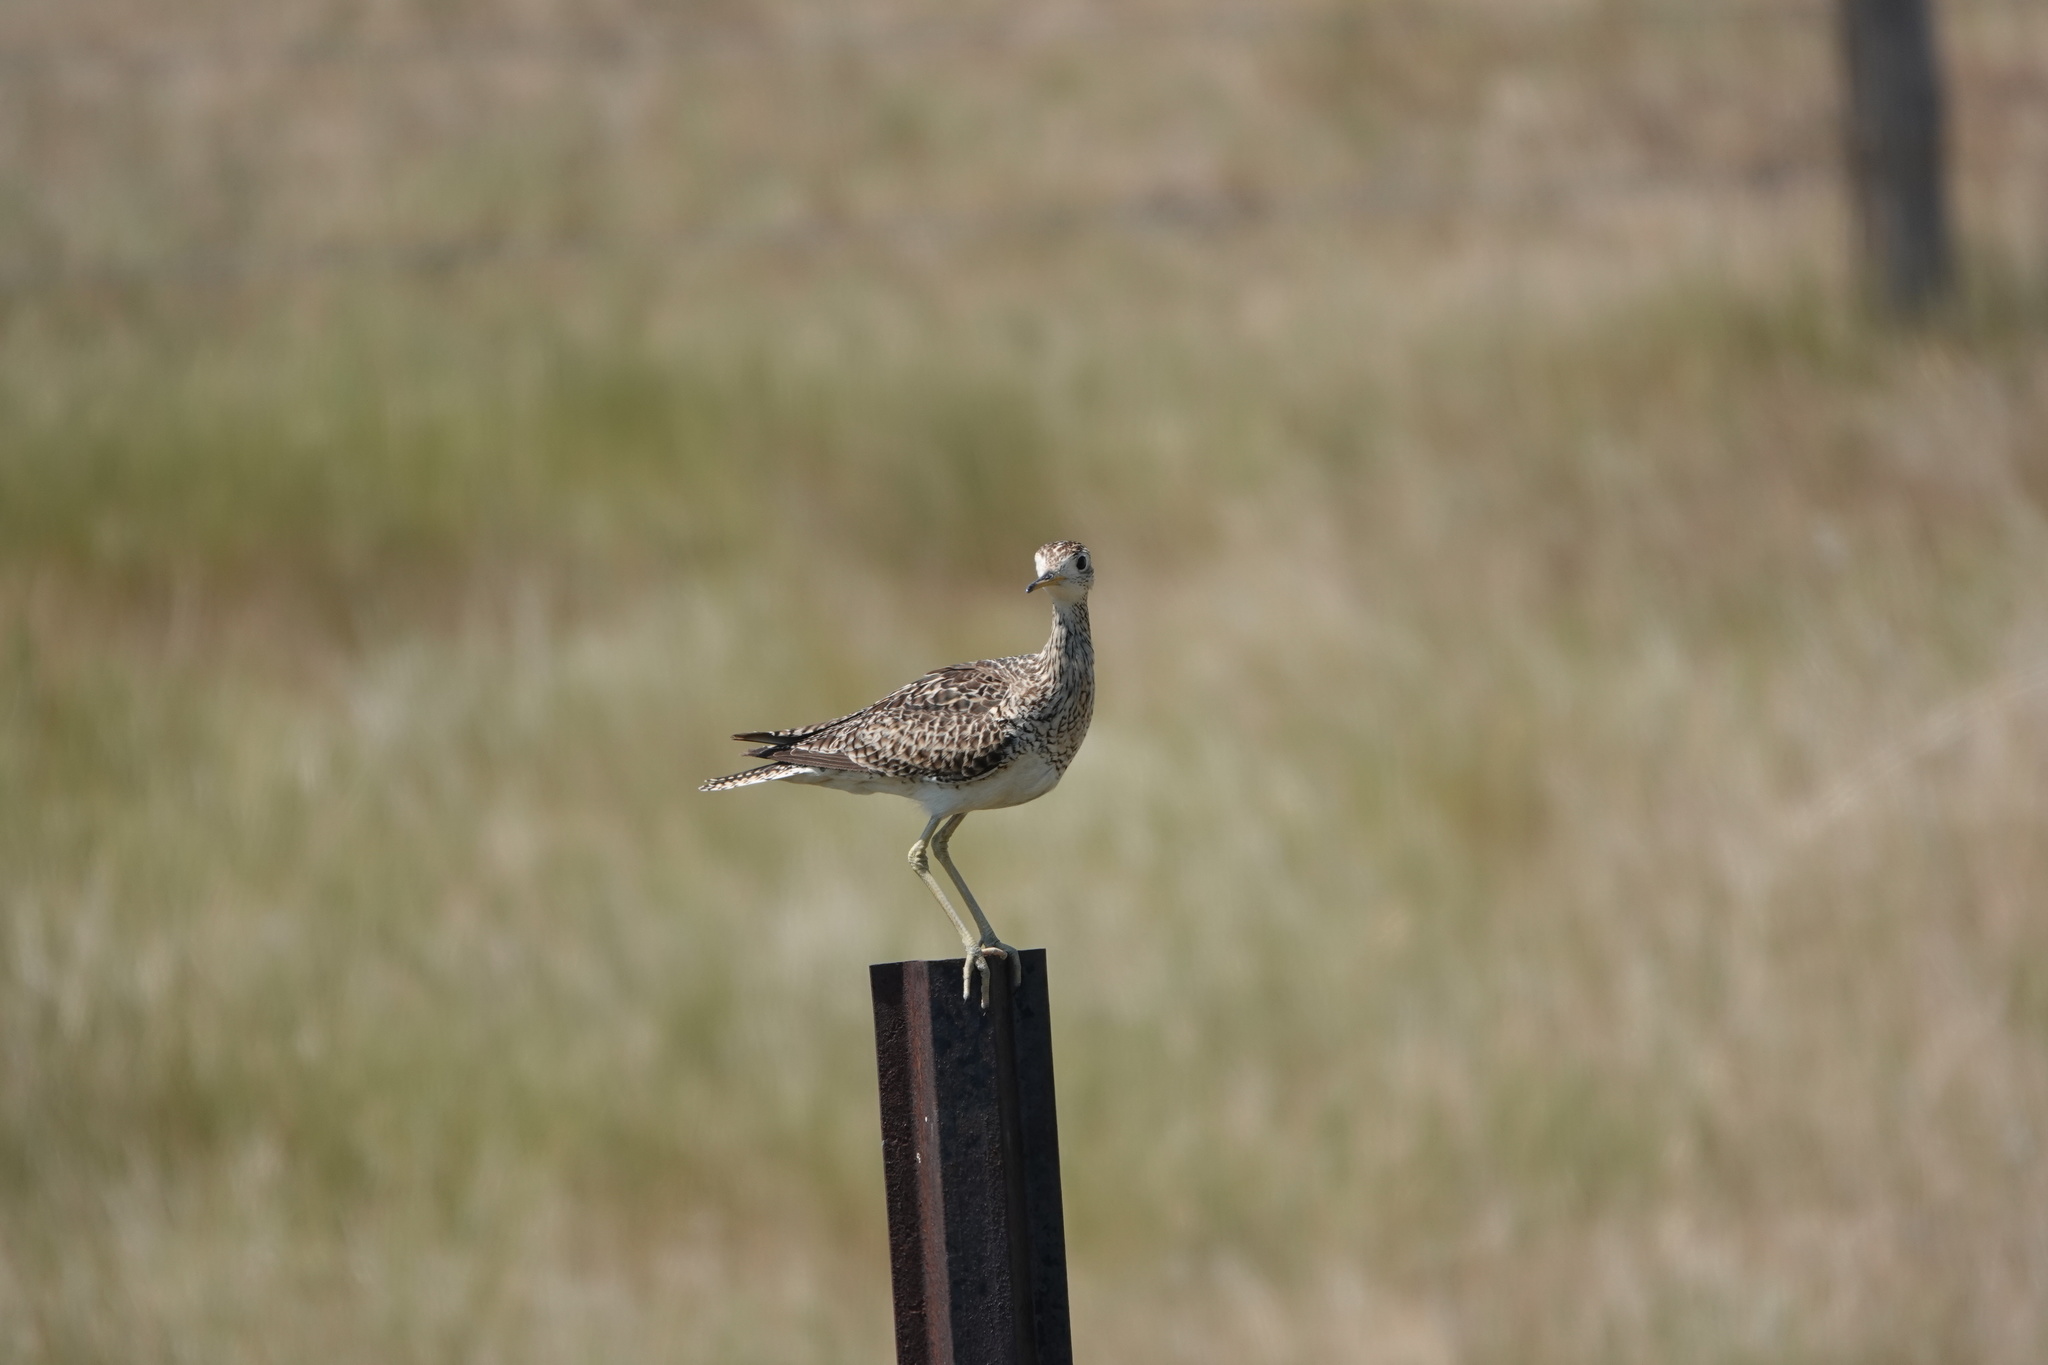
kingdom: Animalia
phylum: Chordata
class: Aves
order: Charadriiformes
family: Scolopacidae
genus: Bartramia
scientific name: Bartramia longicauda
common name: Upland sandpiper
